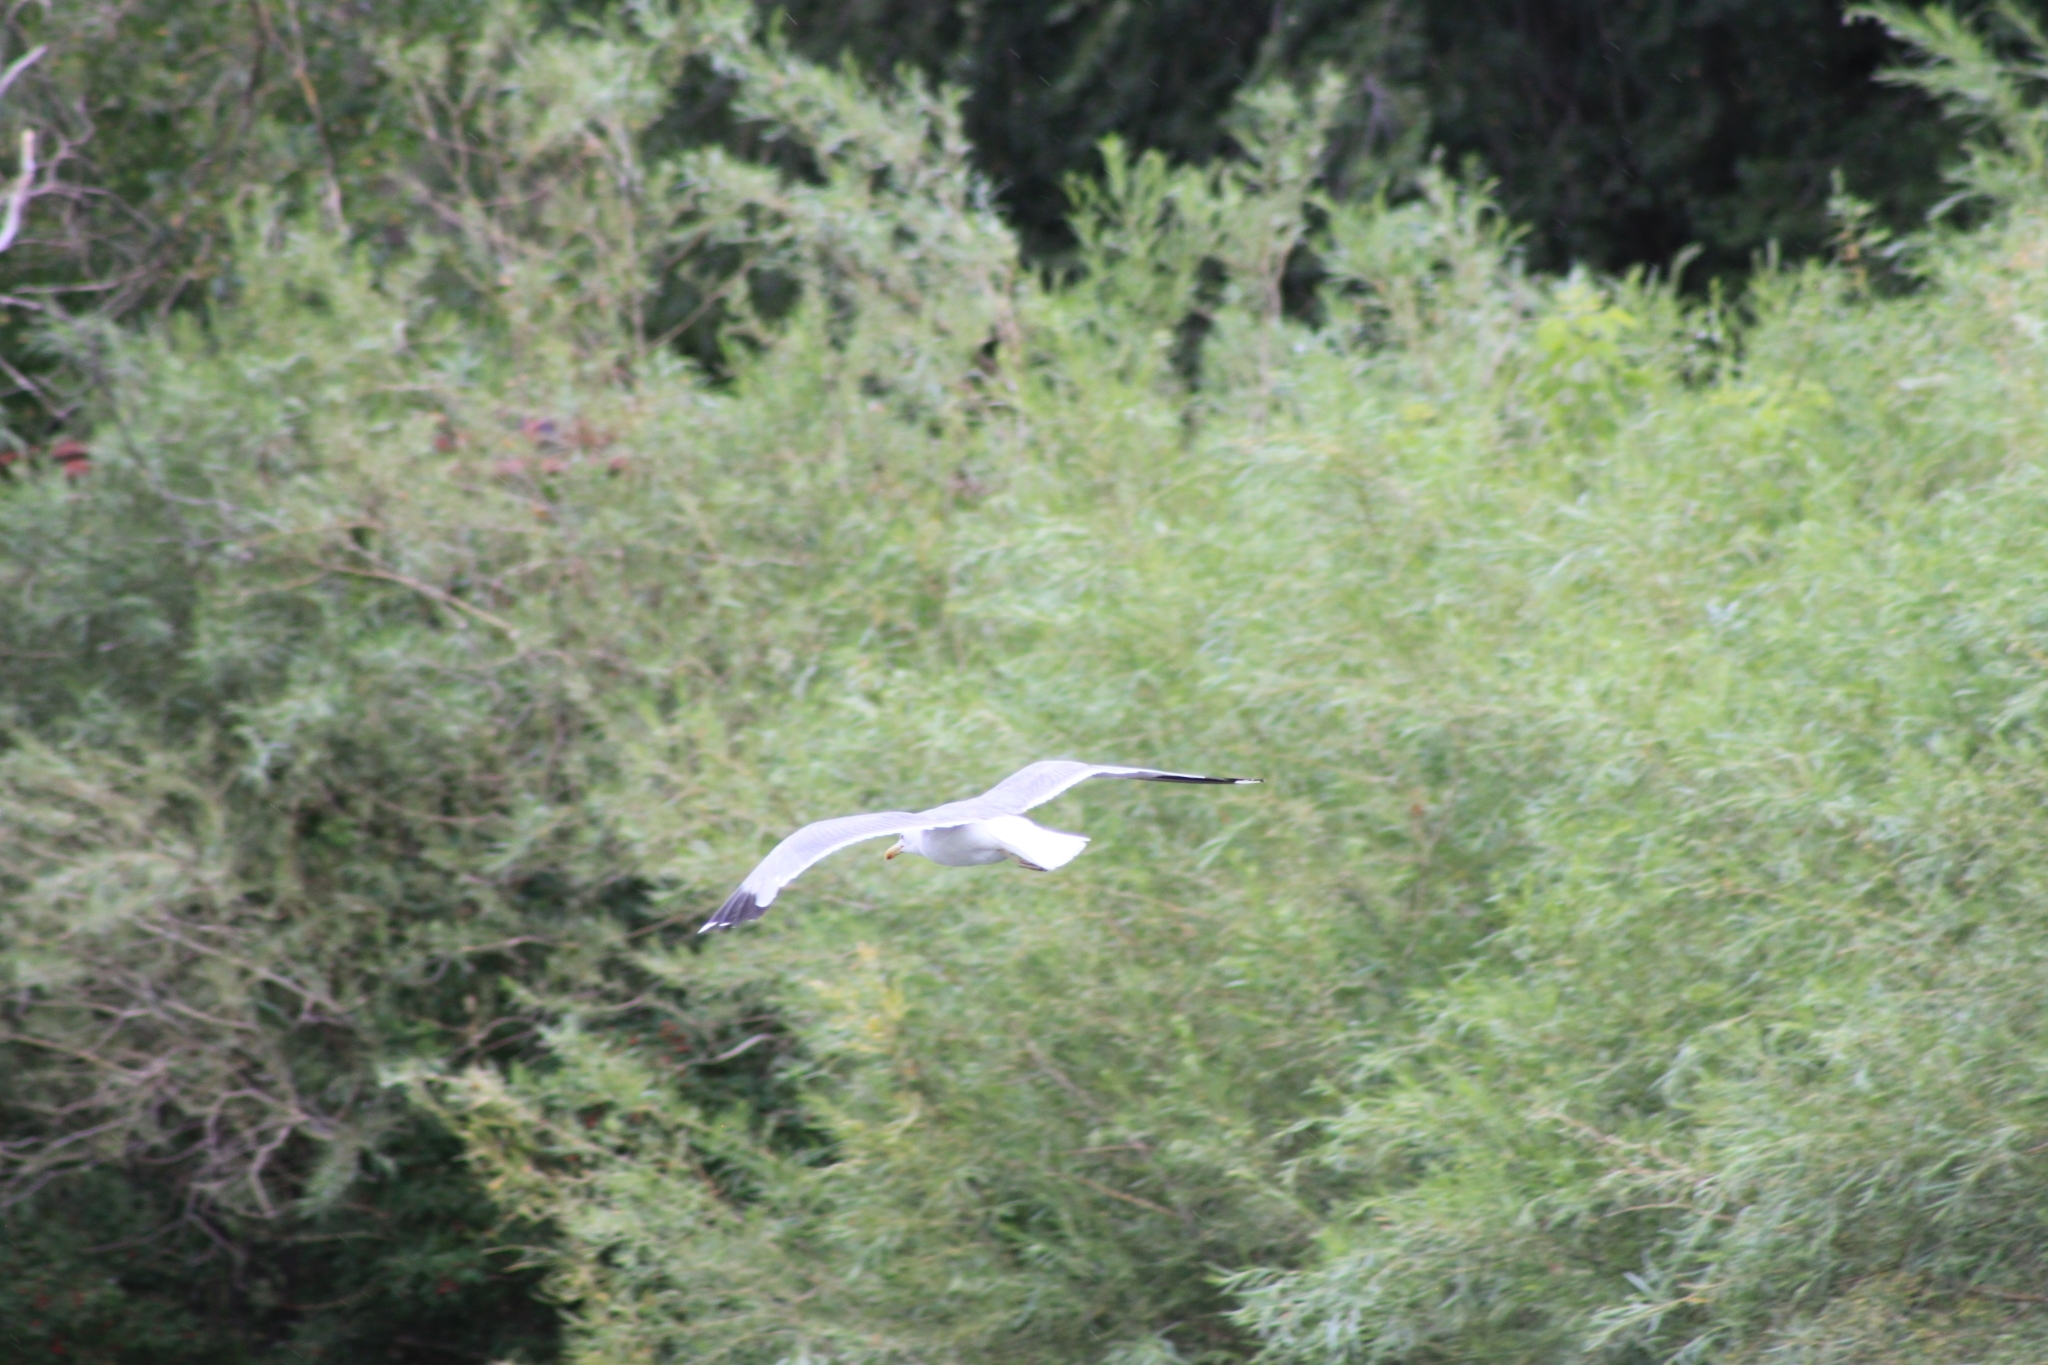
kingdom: Animalia
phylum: Chordata
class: Aves
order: Charadriiformes
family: Laridae
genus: Larus
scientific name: Larus californicus
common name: California gull
